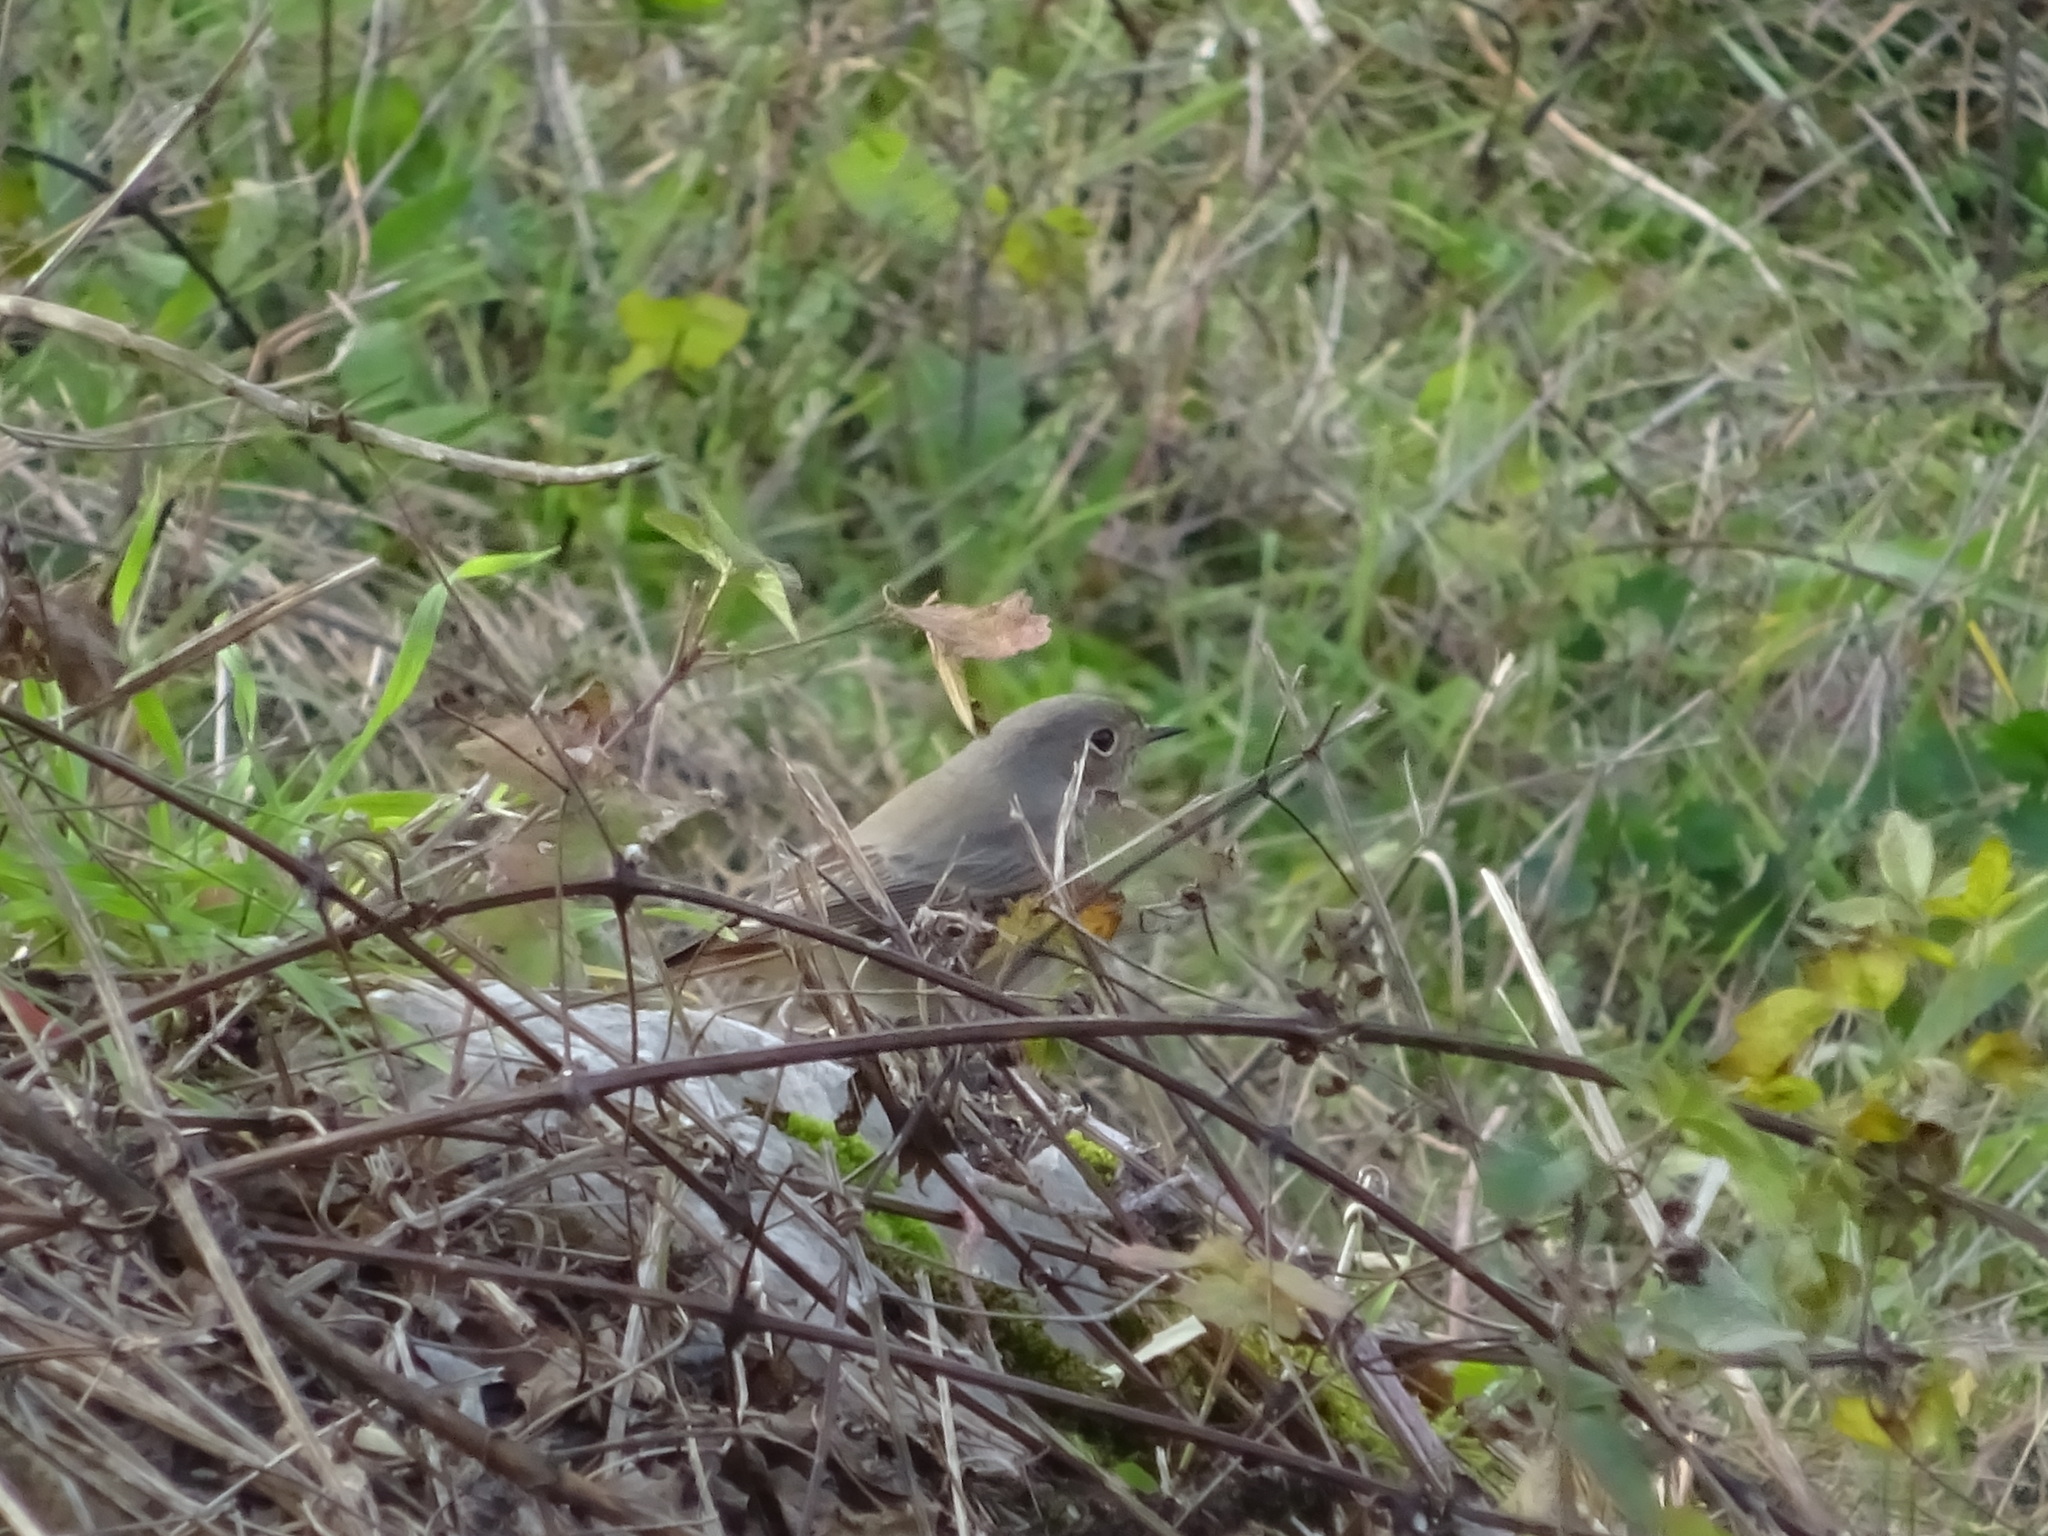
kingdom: Animalia
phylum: Chordata
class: Aves
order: Passeriformes
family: Muscicapidae
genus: Phoenicurus
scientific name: Phoenicurus ochruros
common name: Black redstart
